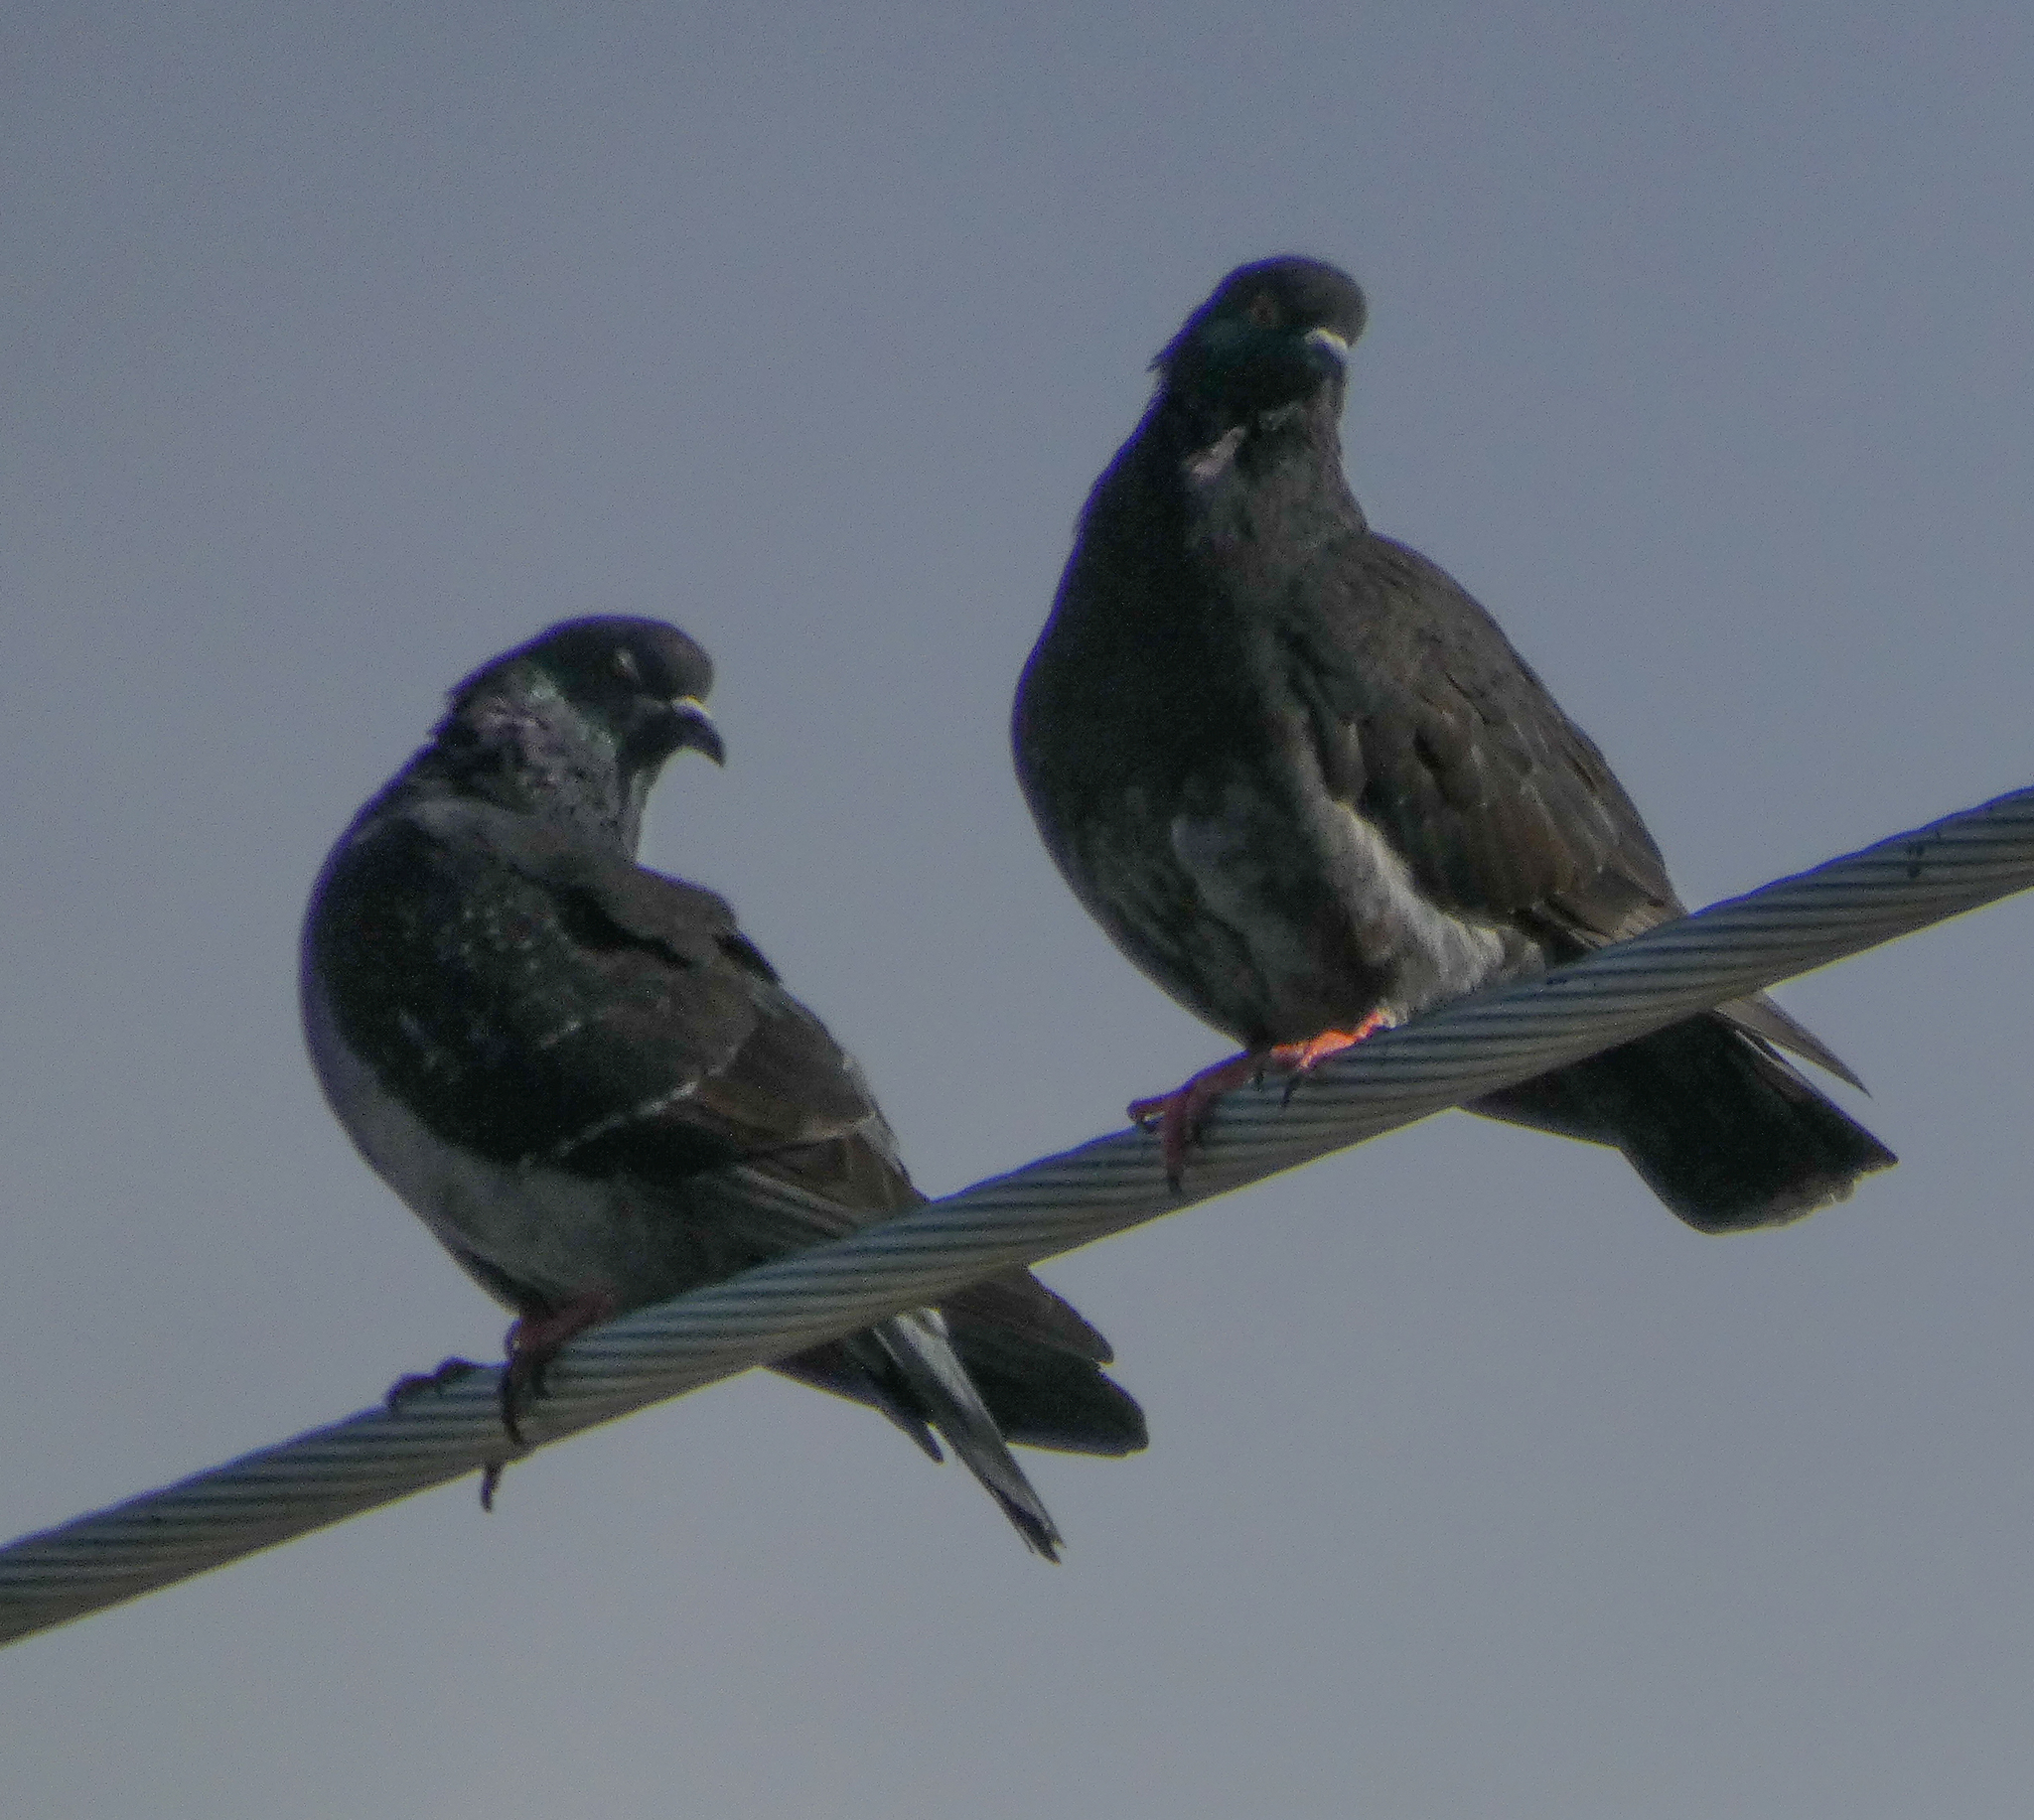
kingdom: Animalia
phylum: Chordata
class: Aves
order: Columbiformes
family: Columbidae
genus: Columba
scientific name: Columba livia
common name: Rock pigeon
